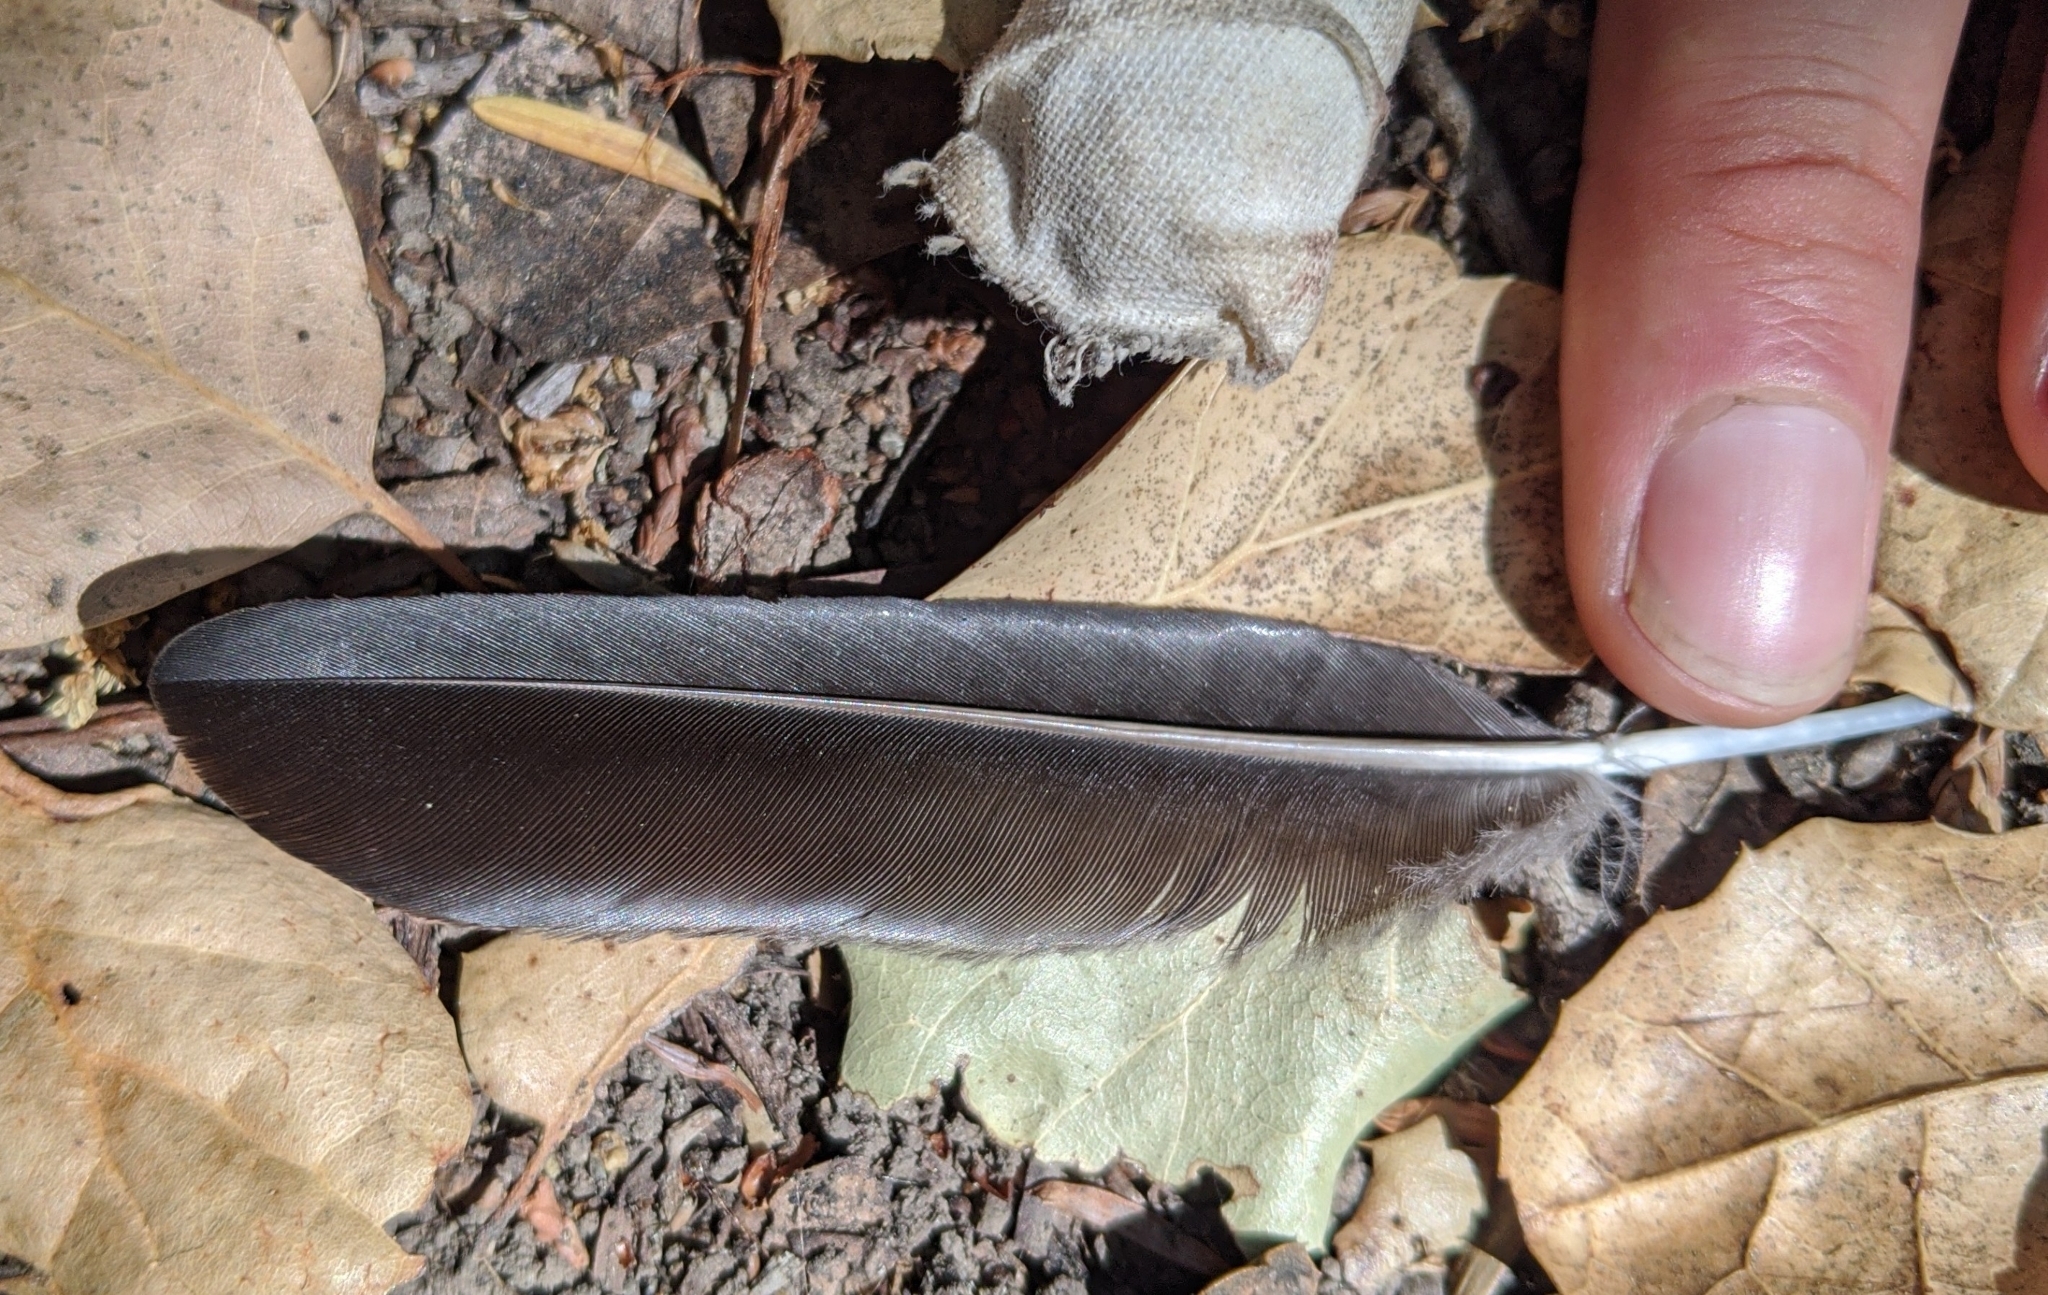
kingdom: Animalia
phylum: Chordata
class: Aves
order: Passeriformes
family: Corvidae
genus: Corvus
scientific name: Corvus brachyrhynchos
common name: American crow
